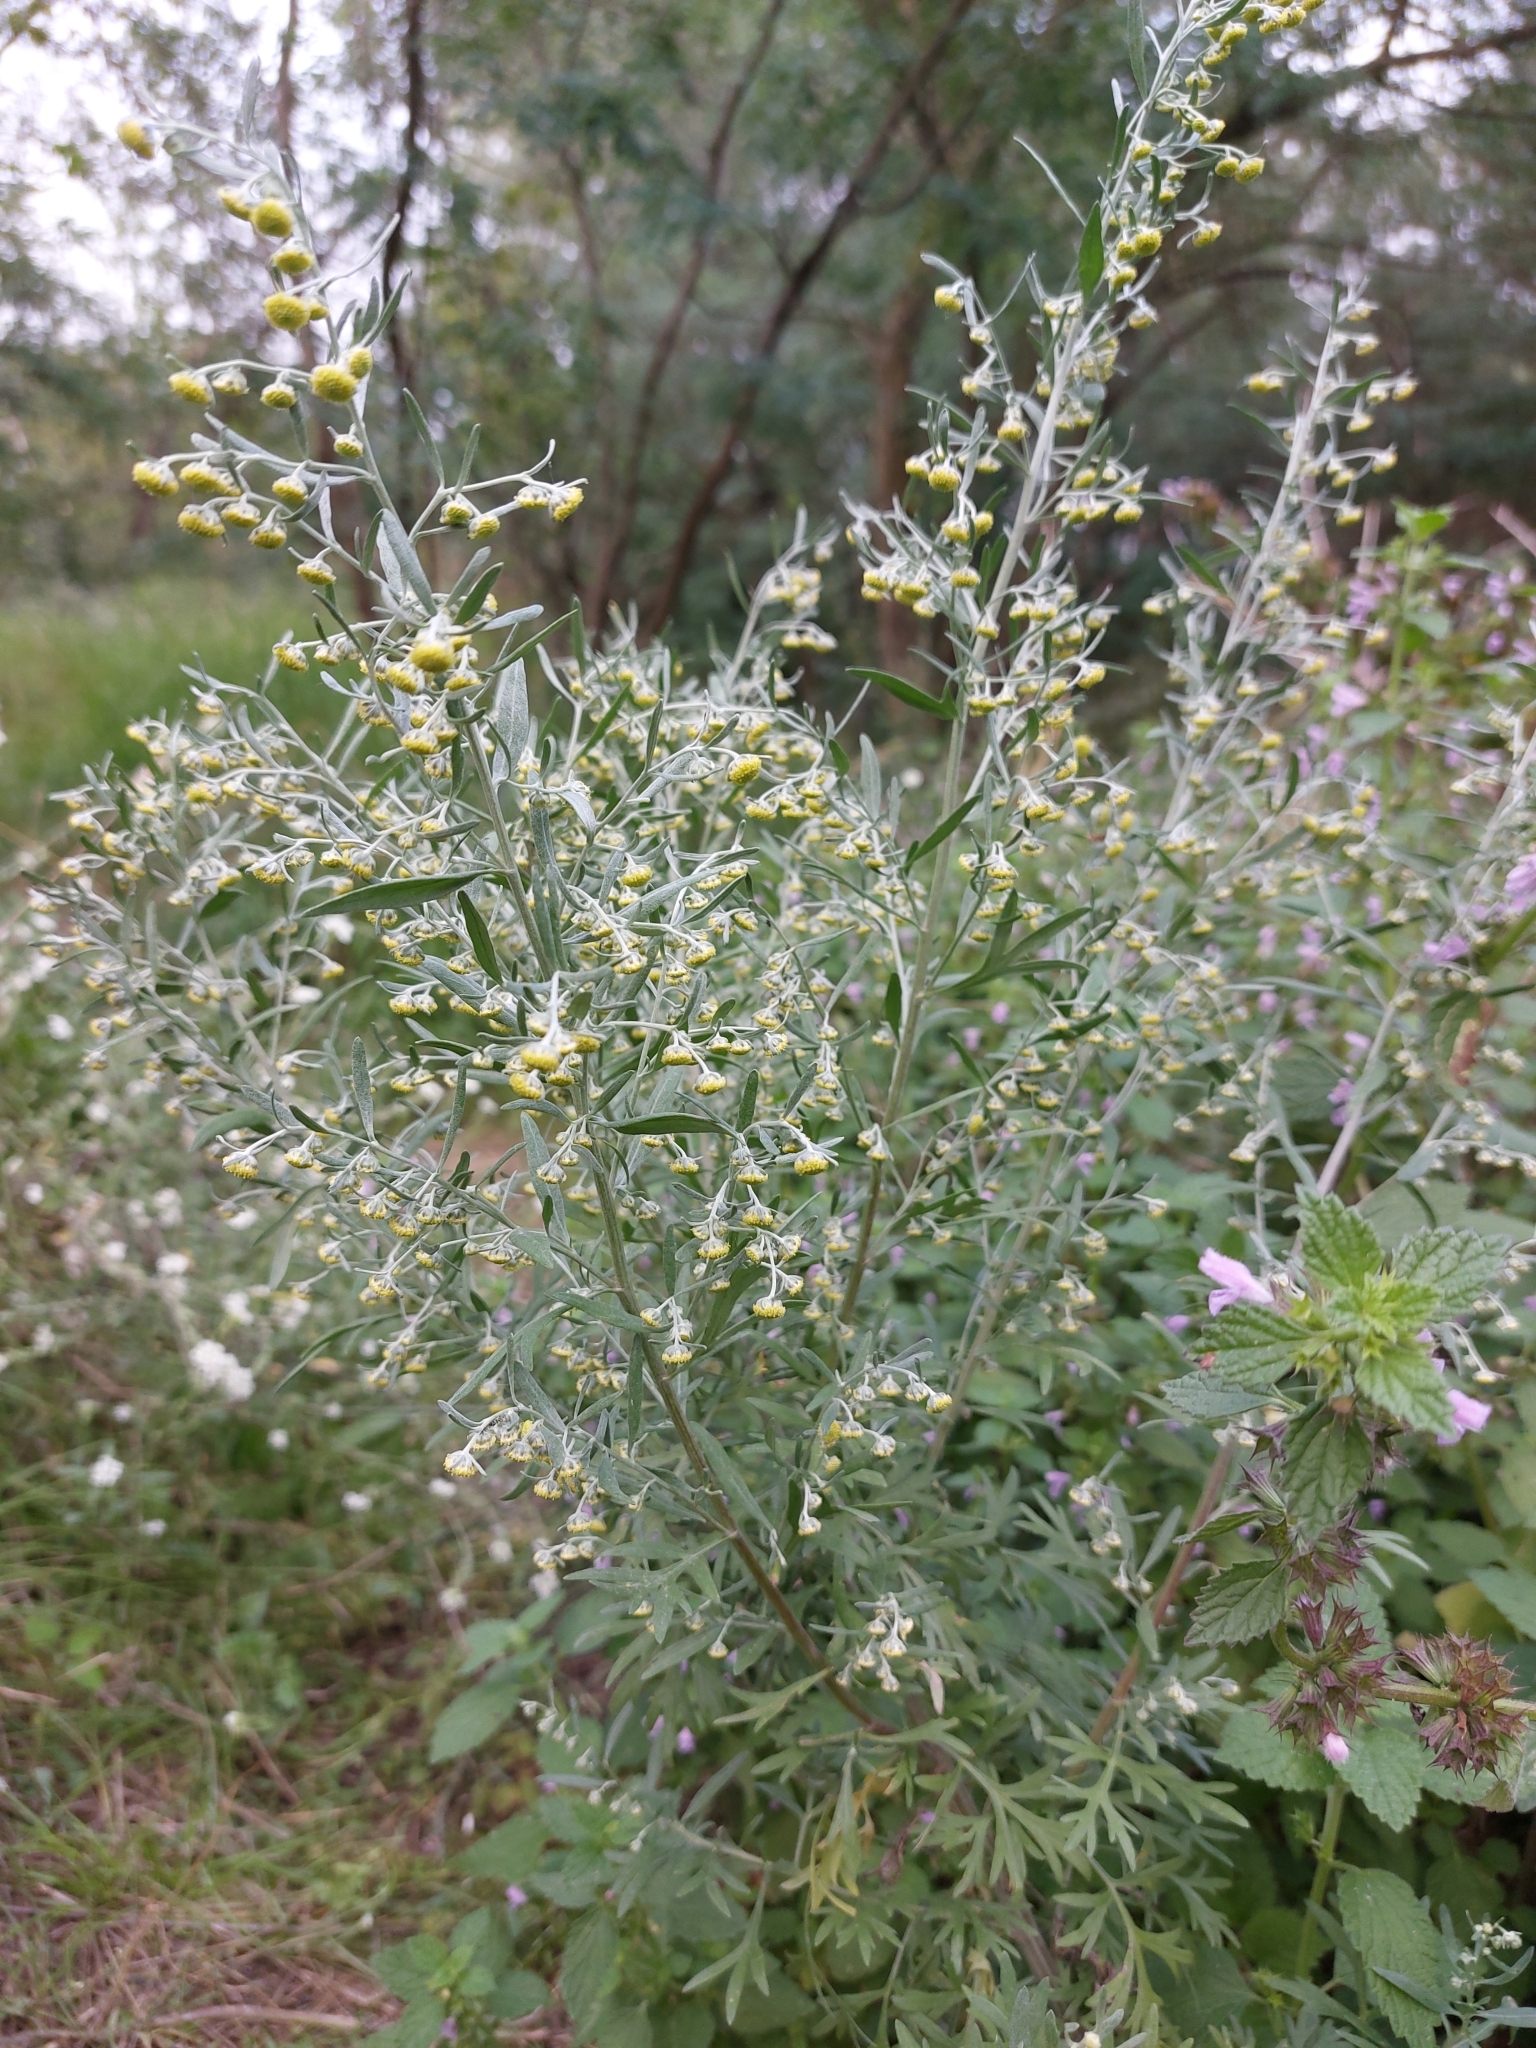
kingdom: Plantae
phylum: Tracheophyta
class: Magnoliopsida
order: Asterales
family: Asteraceae
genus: Artemisia
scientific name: Artemisia absinthium
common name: Wormwood
